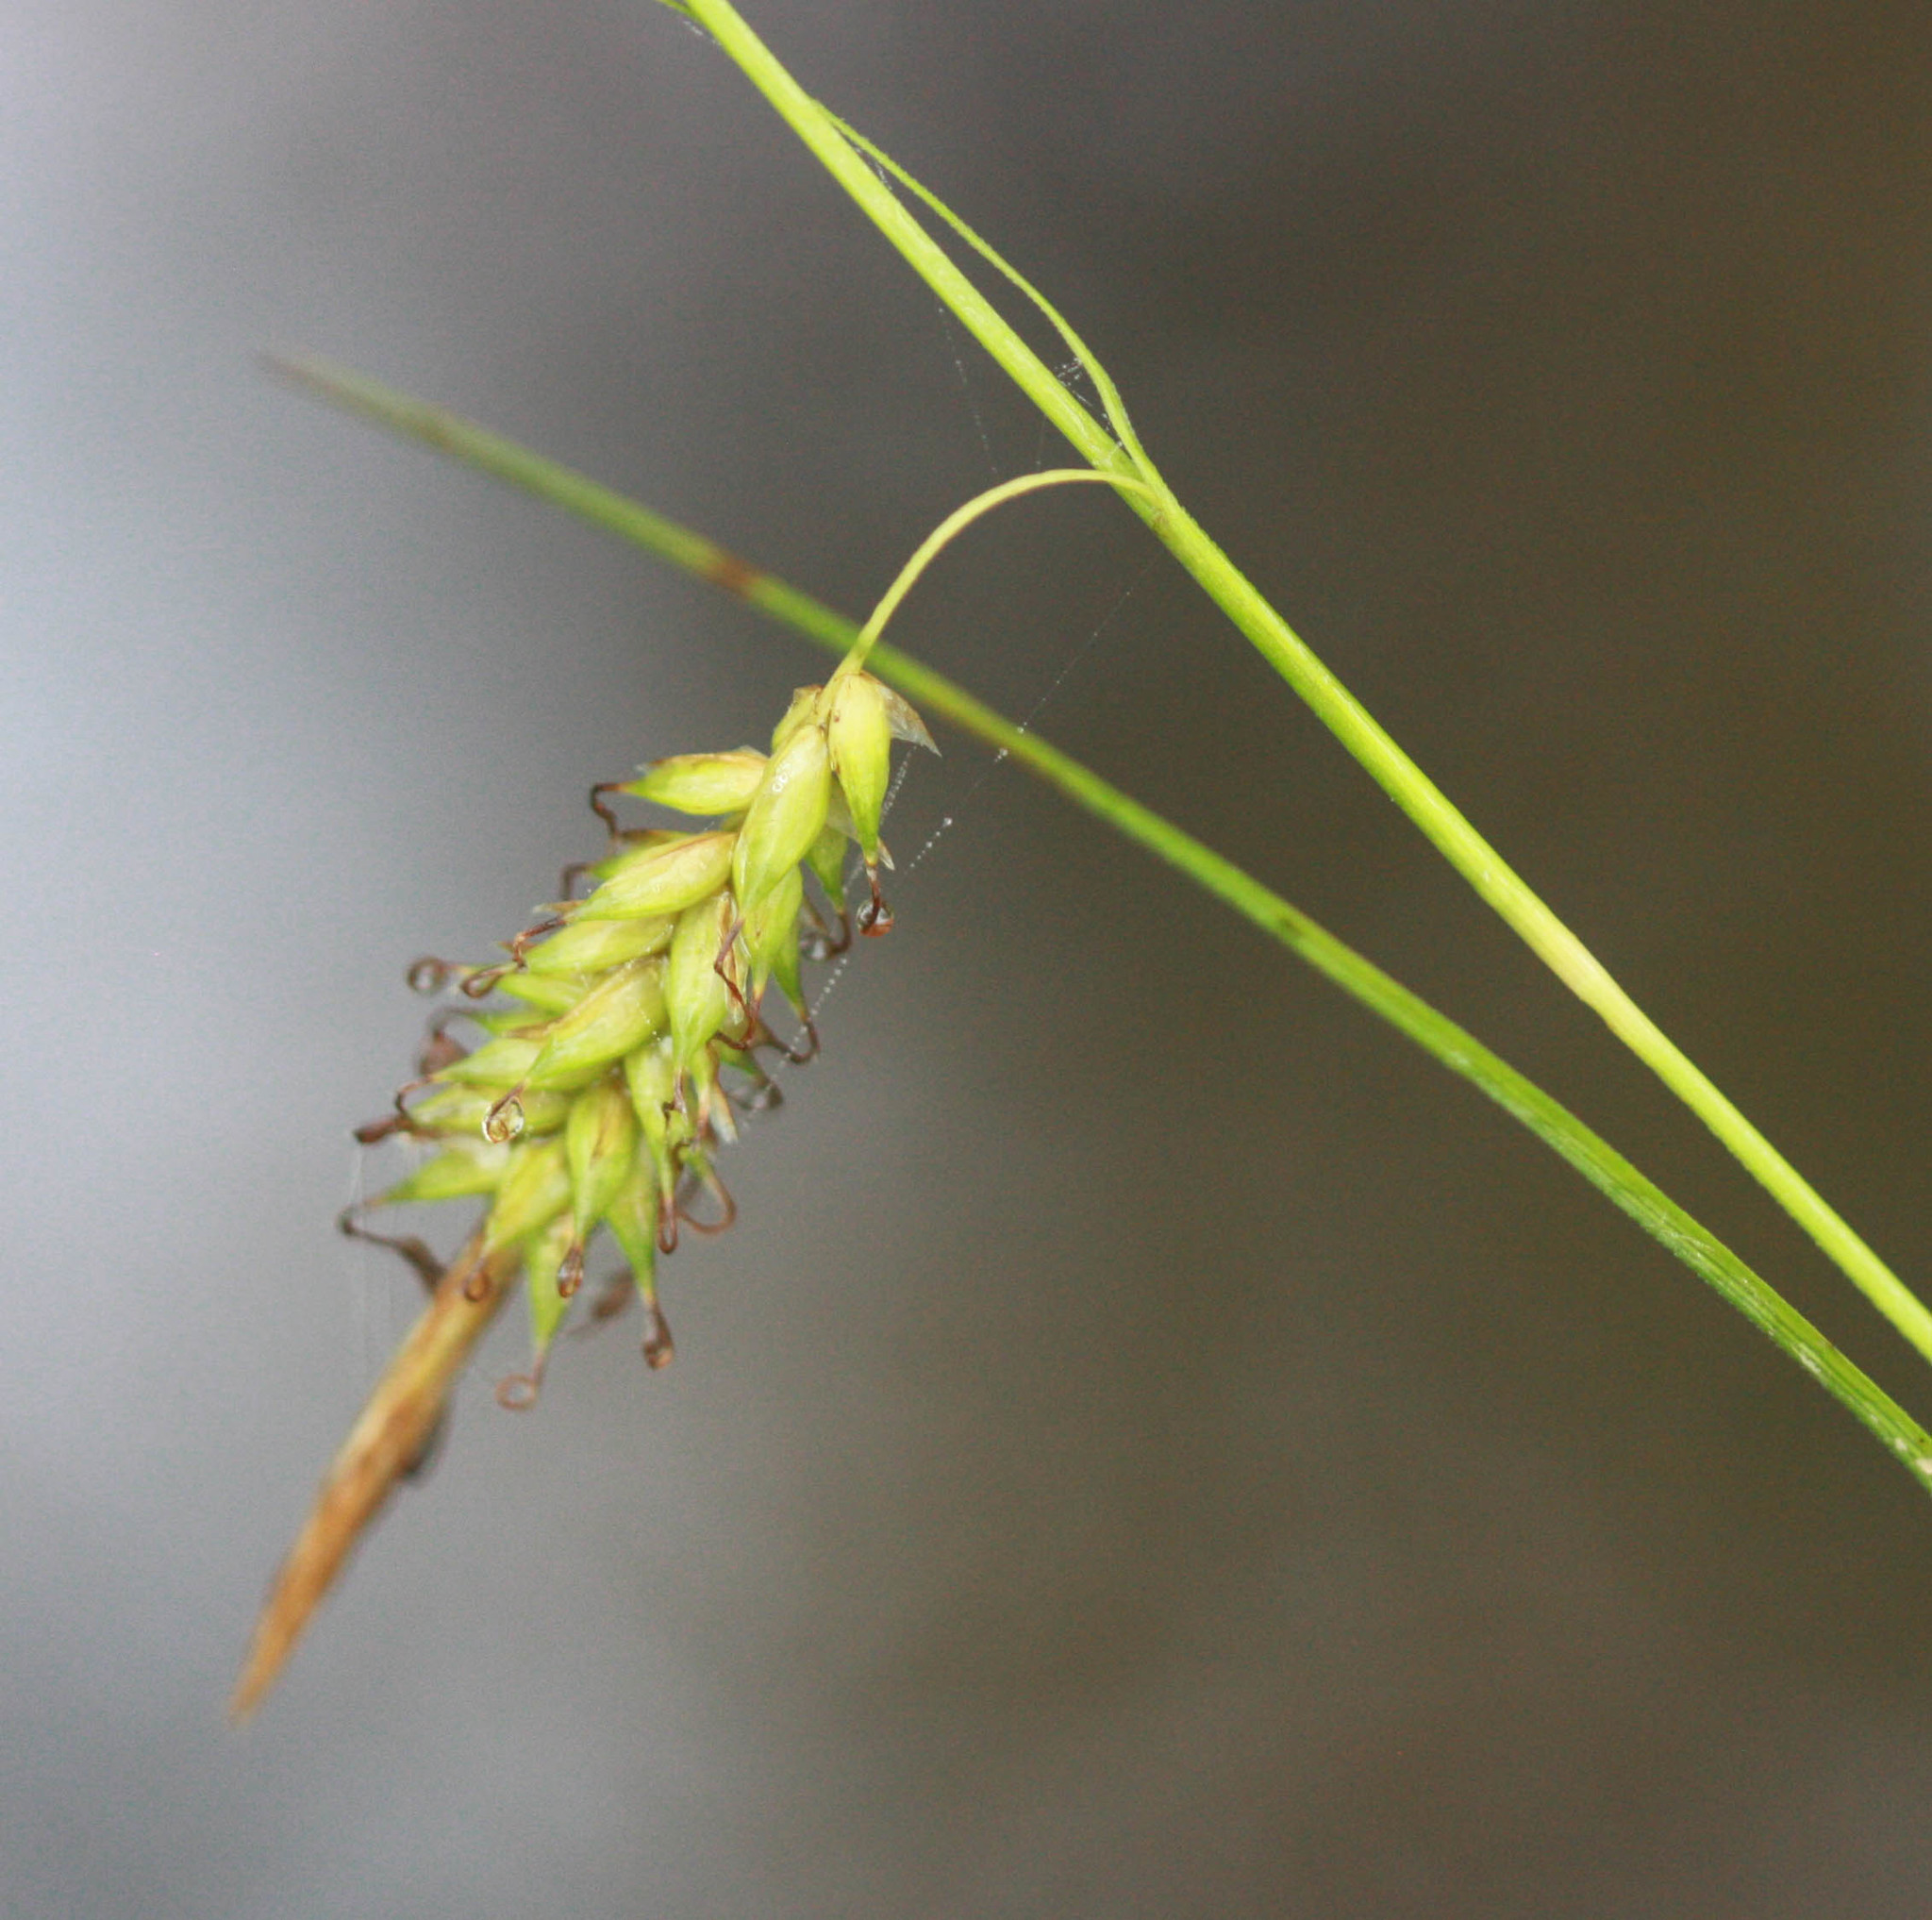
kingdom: Plantae
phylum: Tracheophyta
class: Liliopsida
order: Poales
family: Cyperaceae
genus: Carex
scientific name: Carex cherokeensis
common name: Cherokee sedge
